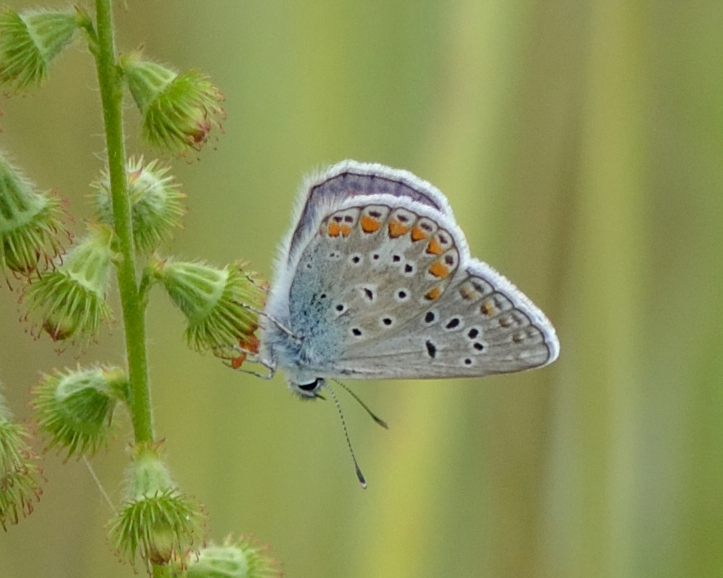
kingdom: Animalia
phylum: Arthropoda
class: Insecta
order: Lepidoptera
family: Lycaenidae
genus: Polyommatus
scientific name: Polyommatus thersites
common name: Chapman's blue
